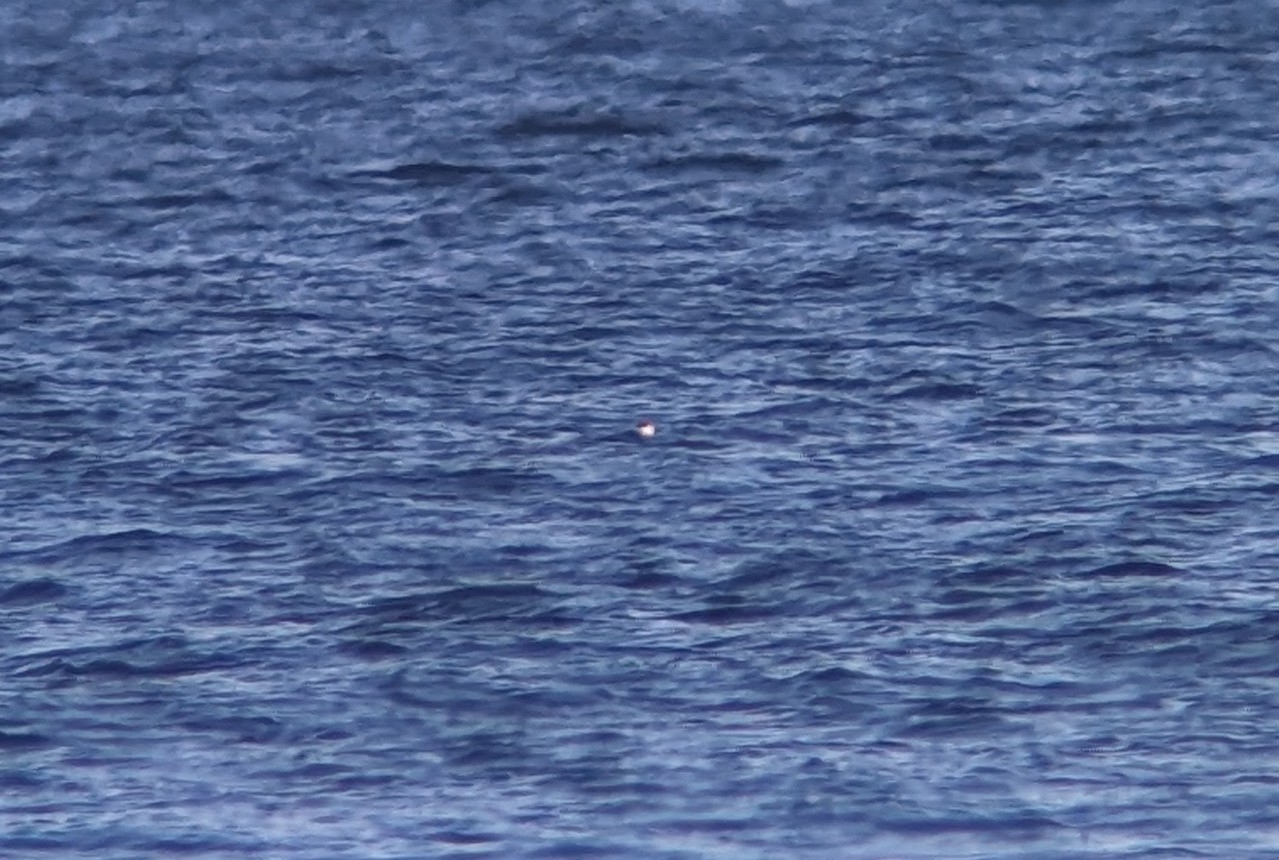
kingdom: Animalia
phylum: Chordata
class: Aves
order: Charadriiformes
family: Alcidae
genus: Alle
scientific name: Alle alle
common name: Little auk
